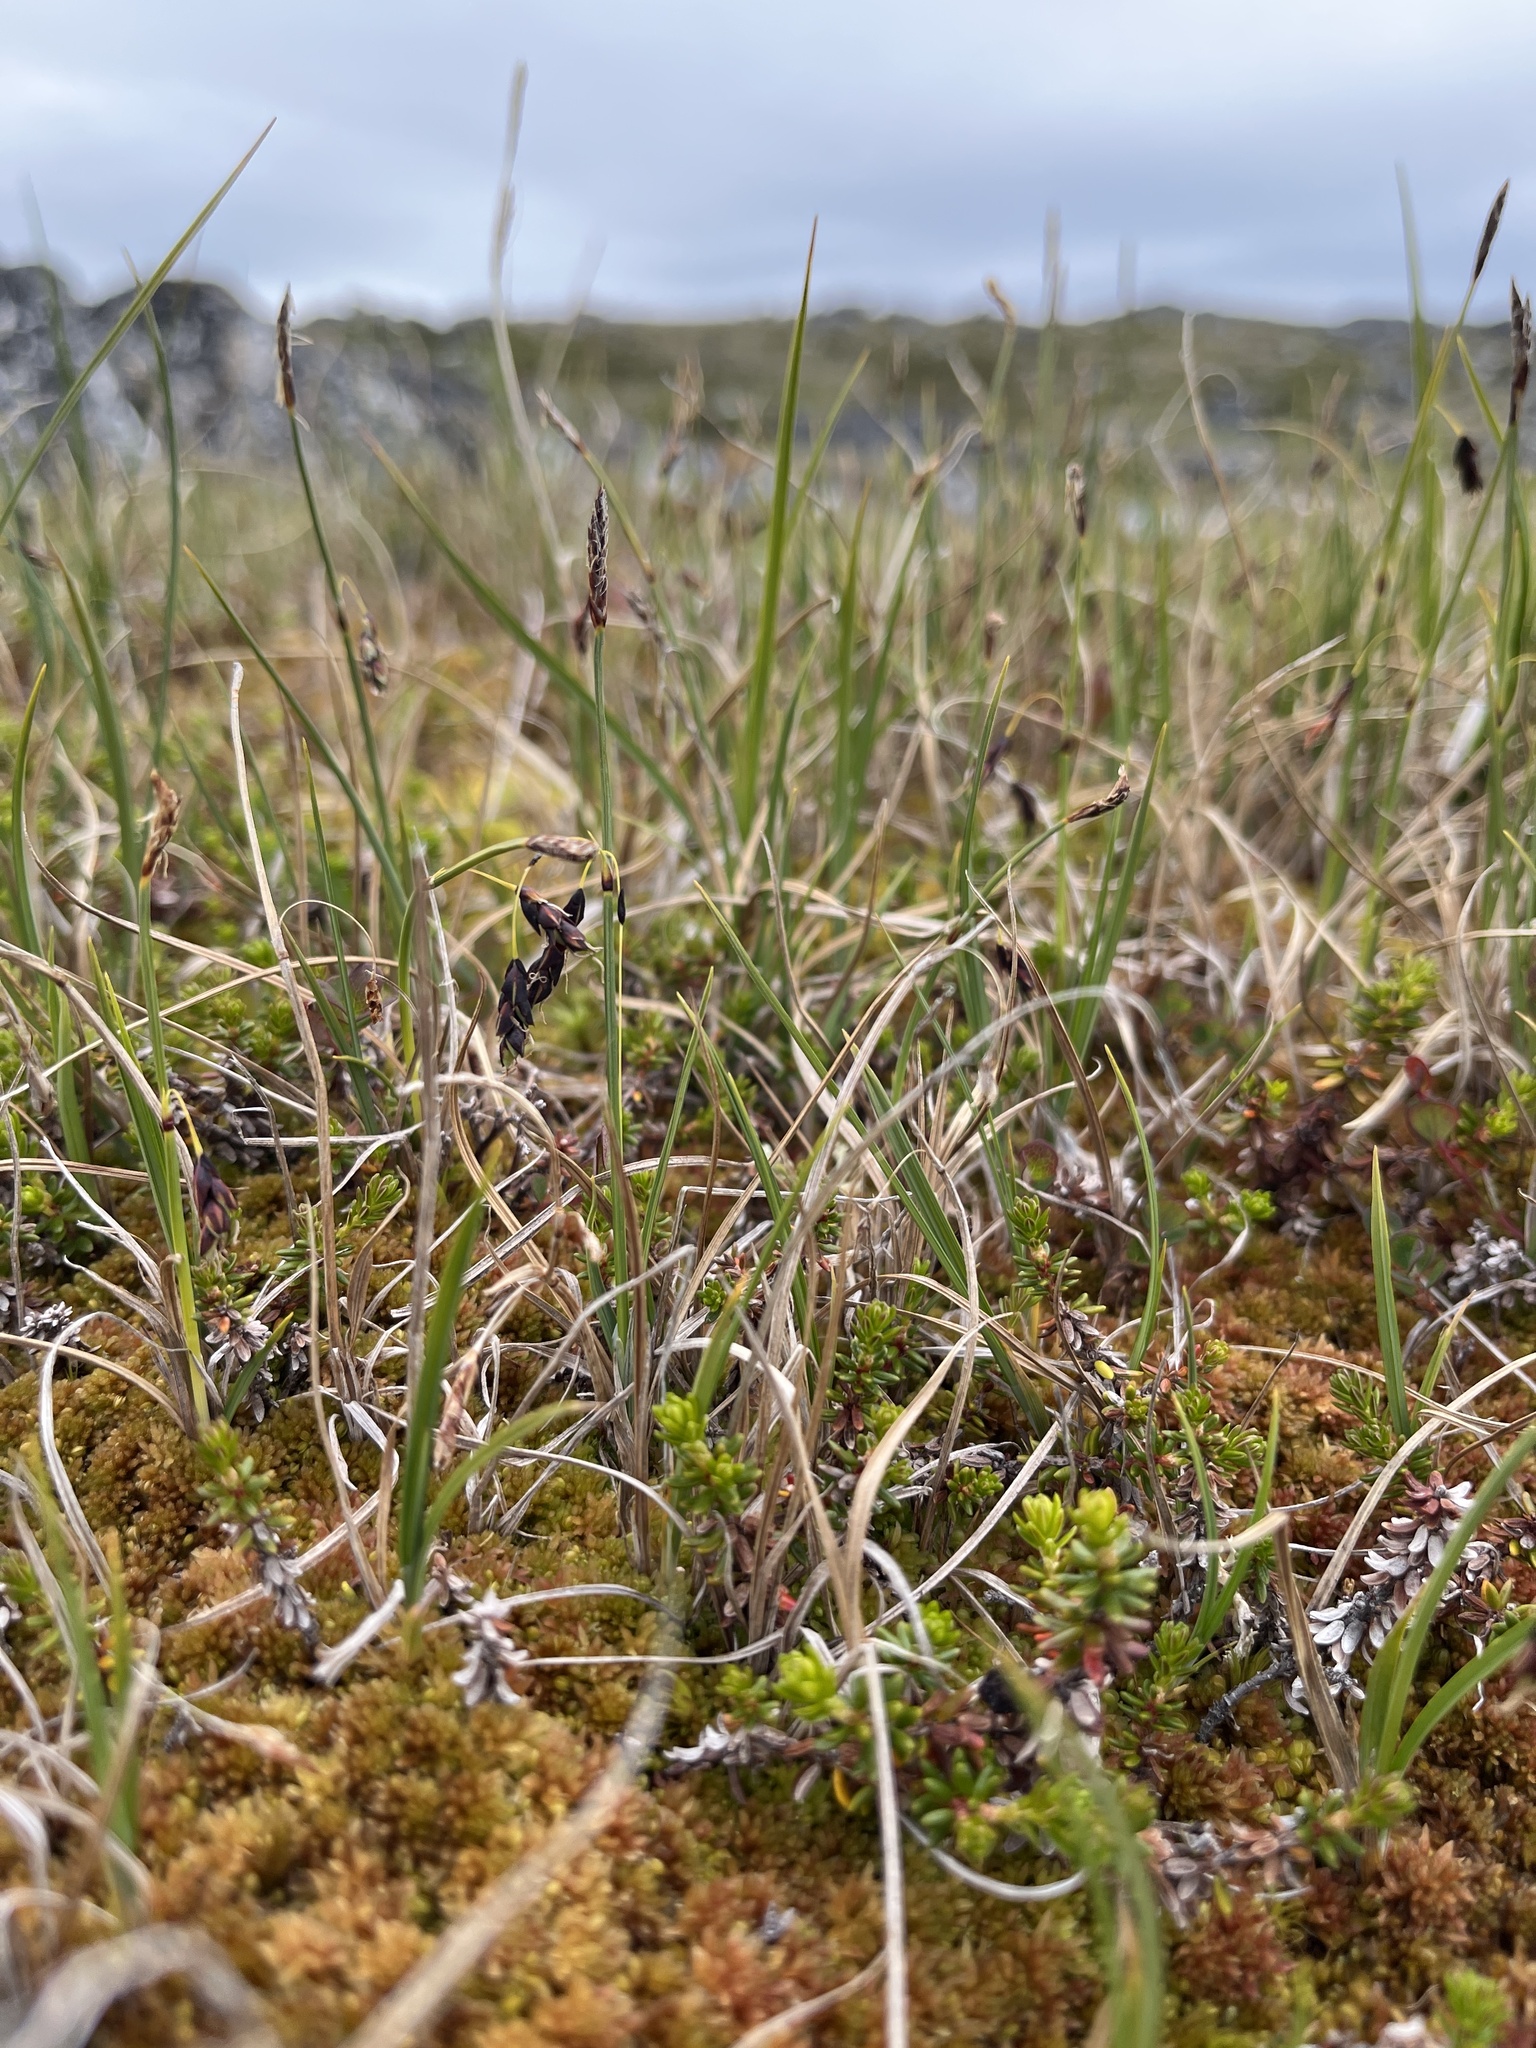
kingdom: Plantae
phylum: Tracheophyta
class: Liliopsida
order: Poales
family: Cyperaceae
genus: Carex
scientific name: Carex rariflora
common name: Loose-flowered alpine sedge
